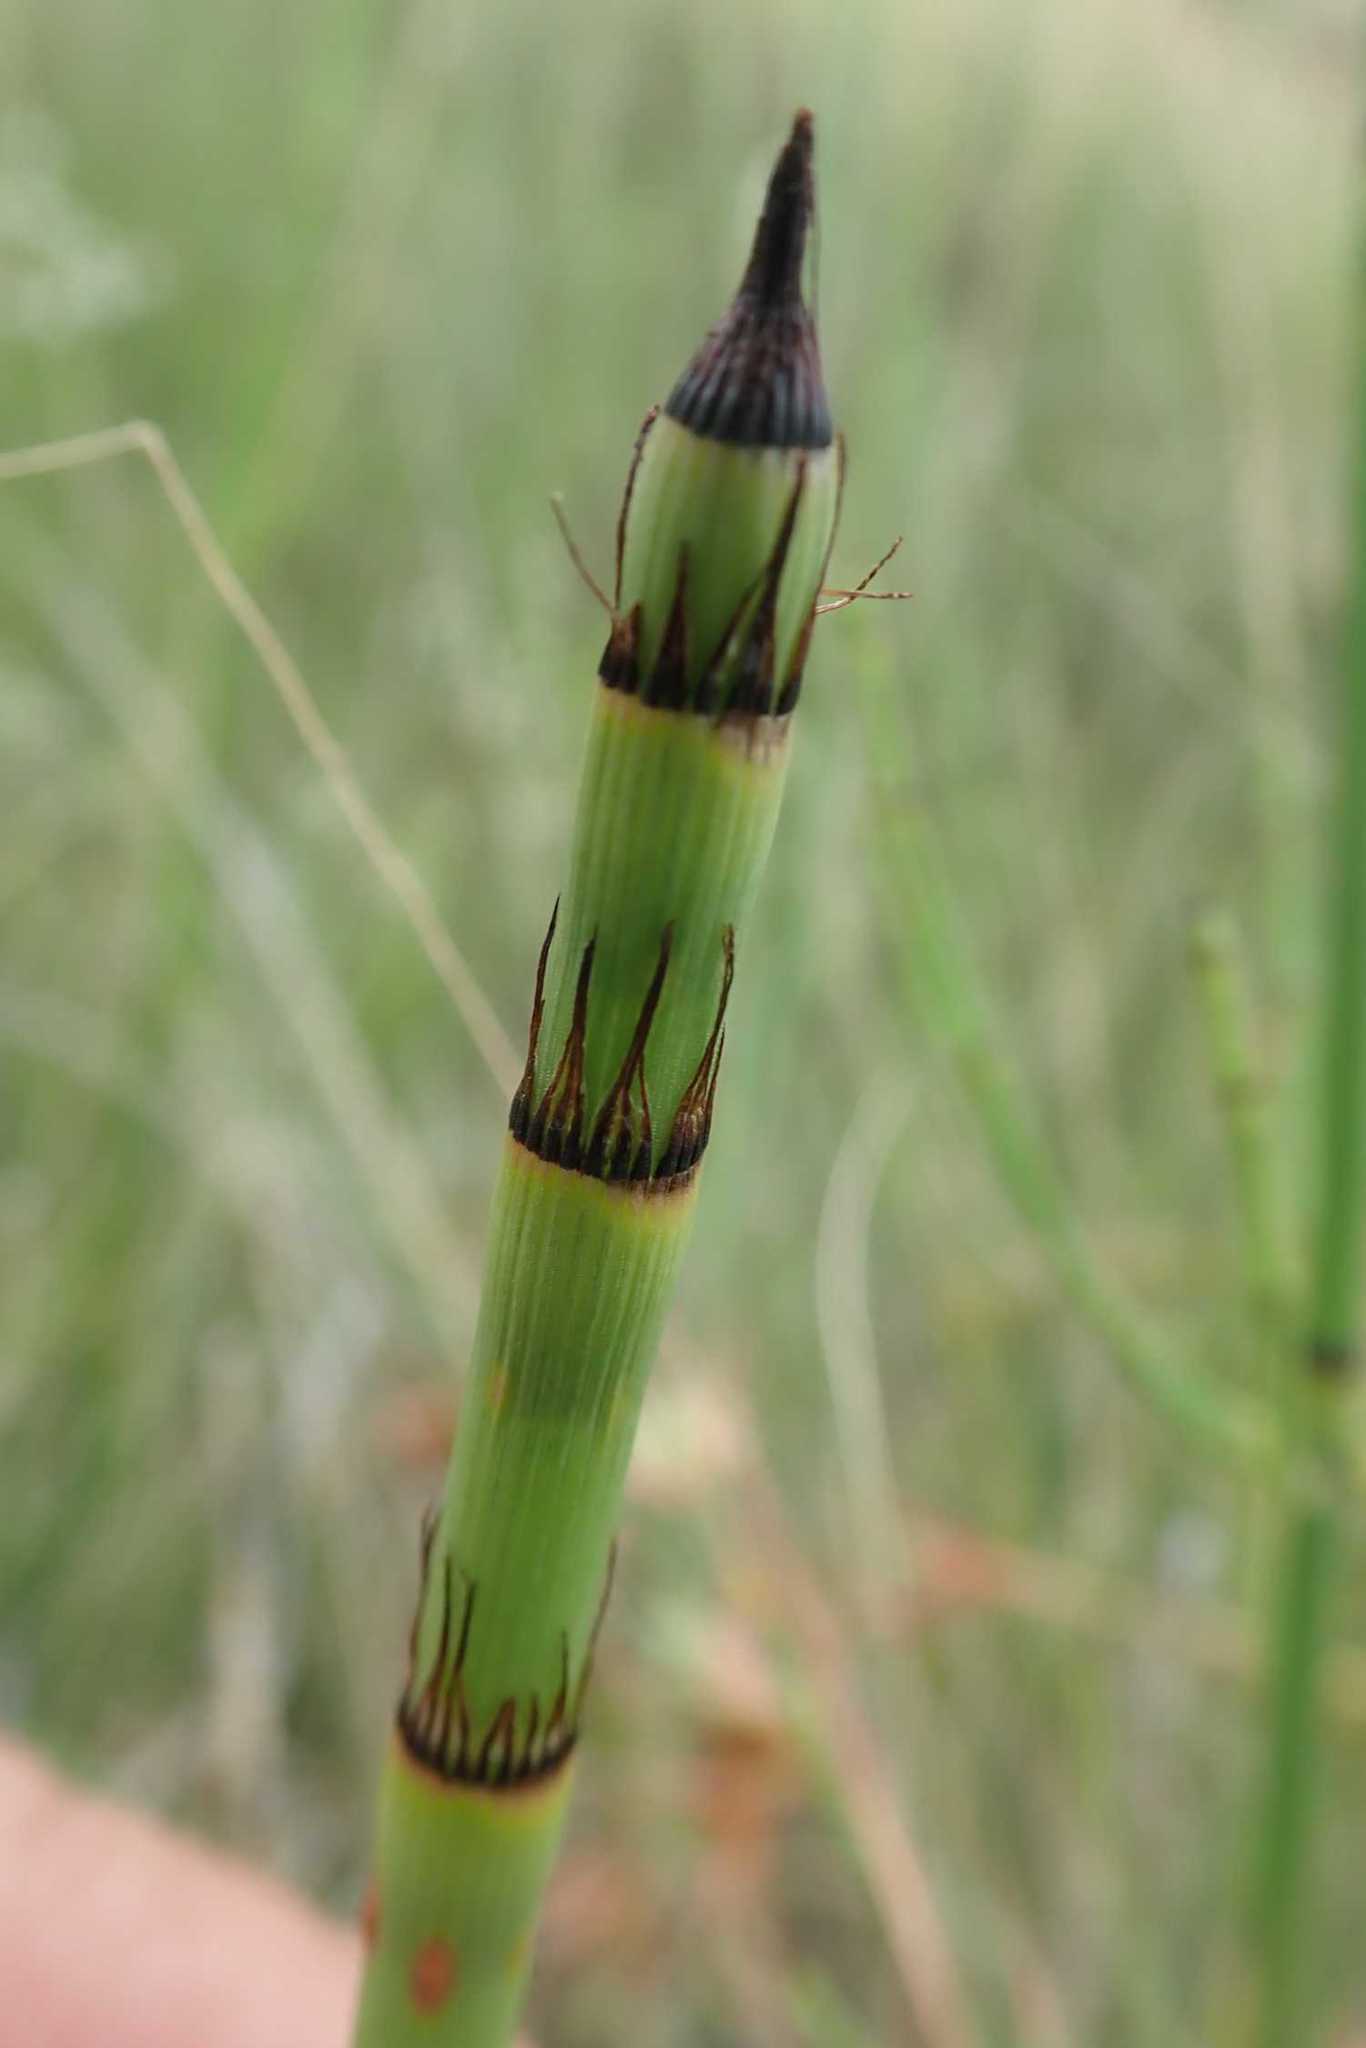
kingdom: Plantae
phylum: Tracheophyta
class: Polypodiopsida
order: Equisetales
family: Equisetaceae
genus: Equisetum
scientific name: Equisetum ramosissimum
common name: Branched horsetail
